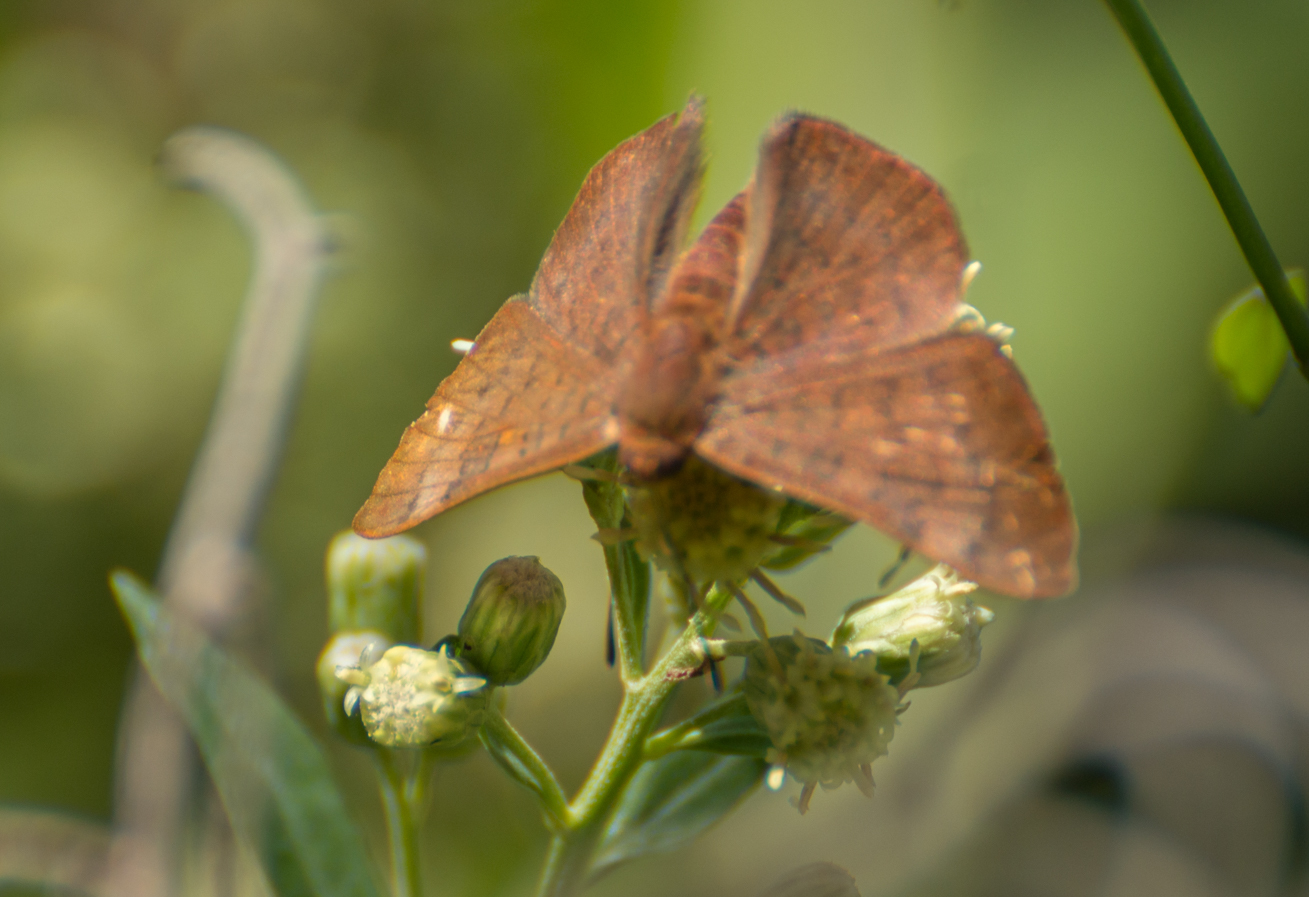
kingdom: Animalia
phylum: Arthropoda
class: Insecta
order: Lepidoptera
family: Lycaenidae
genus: Emesis
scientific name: Emesis russula
